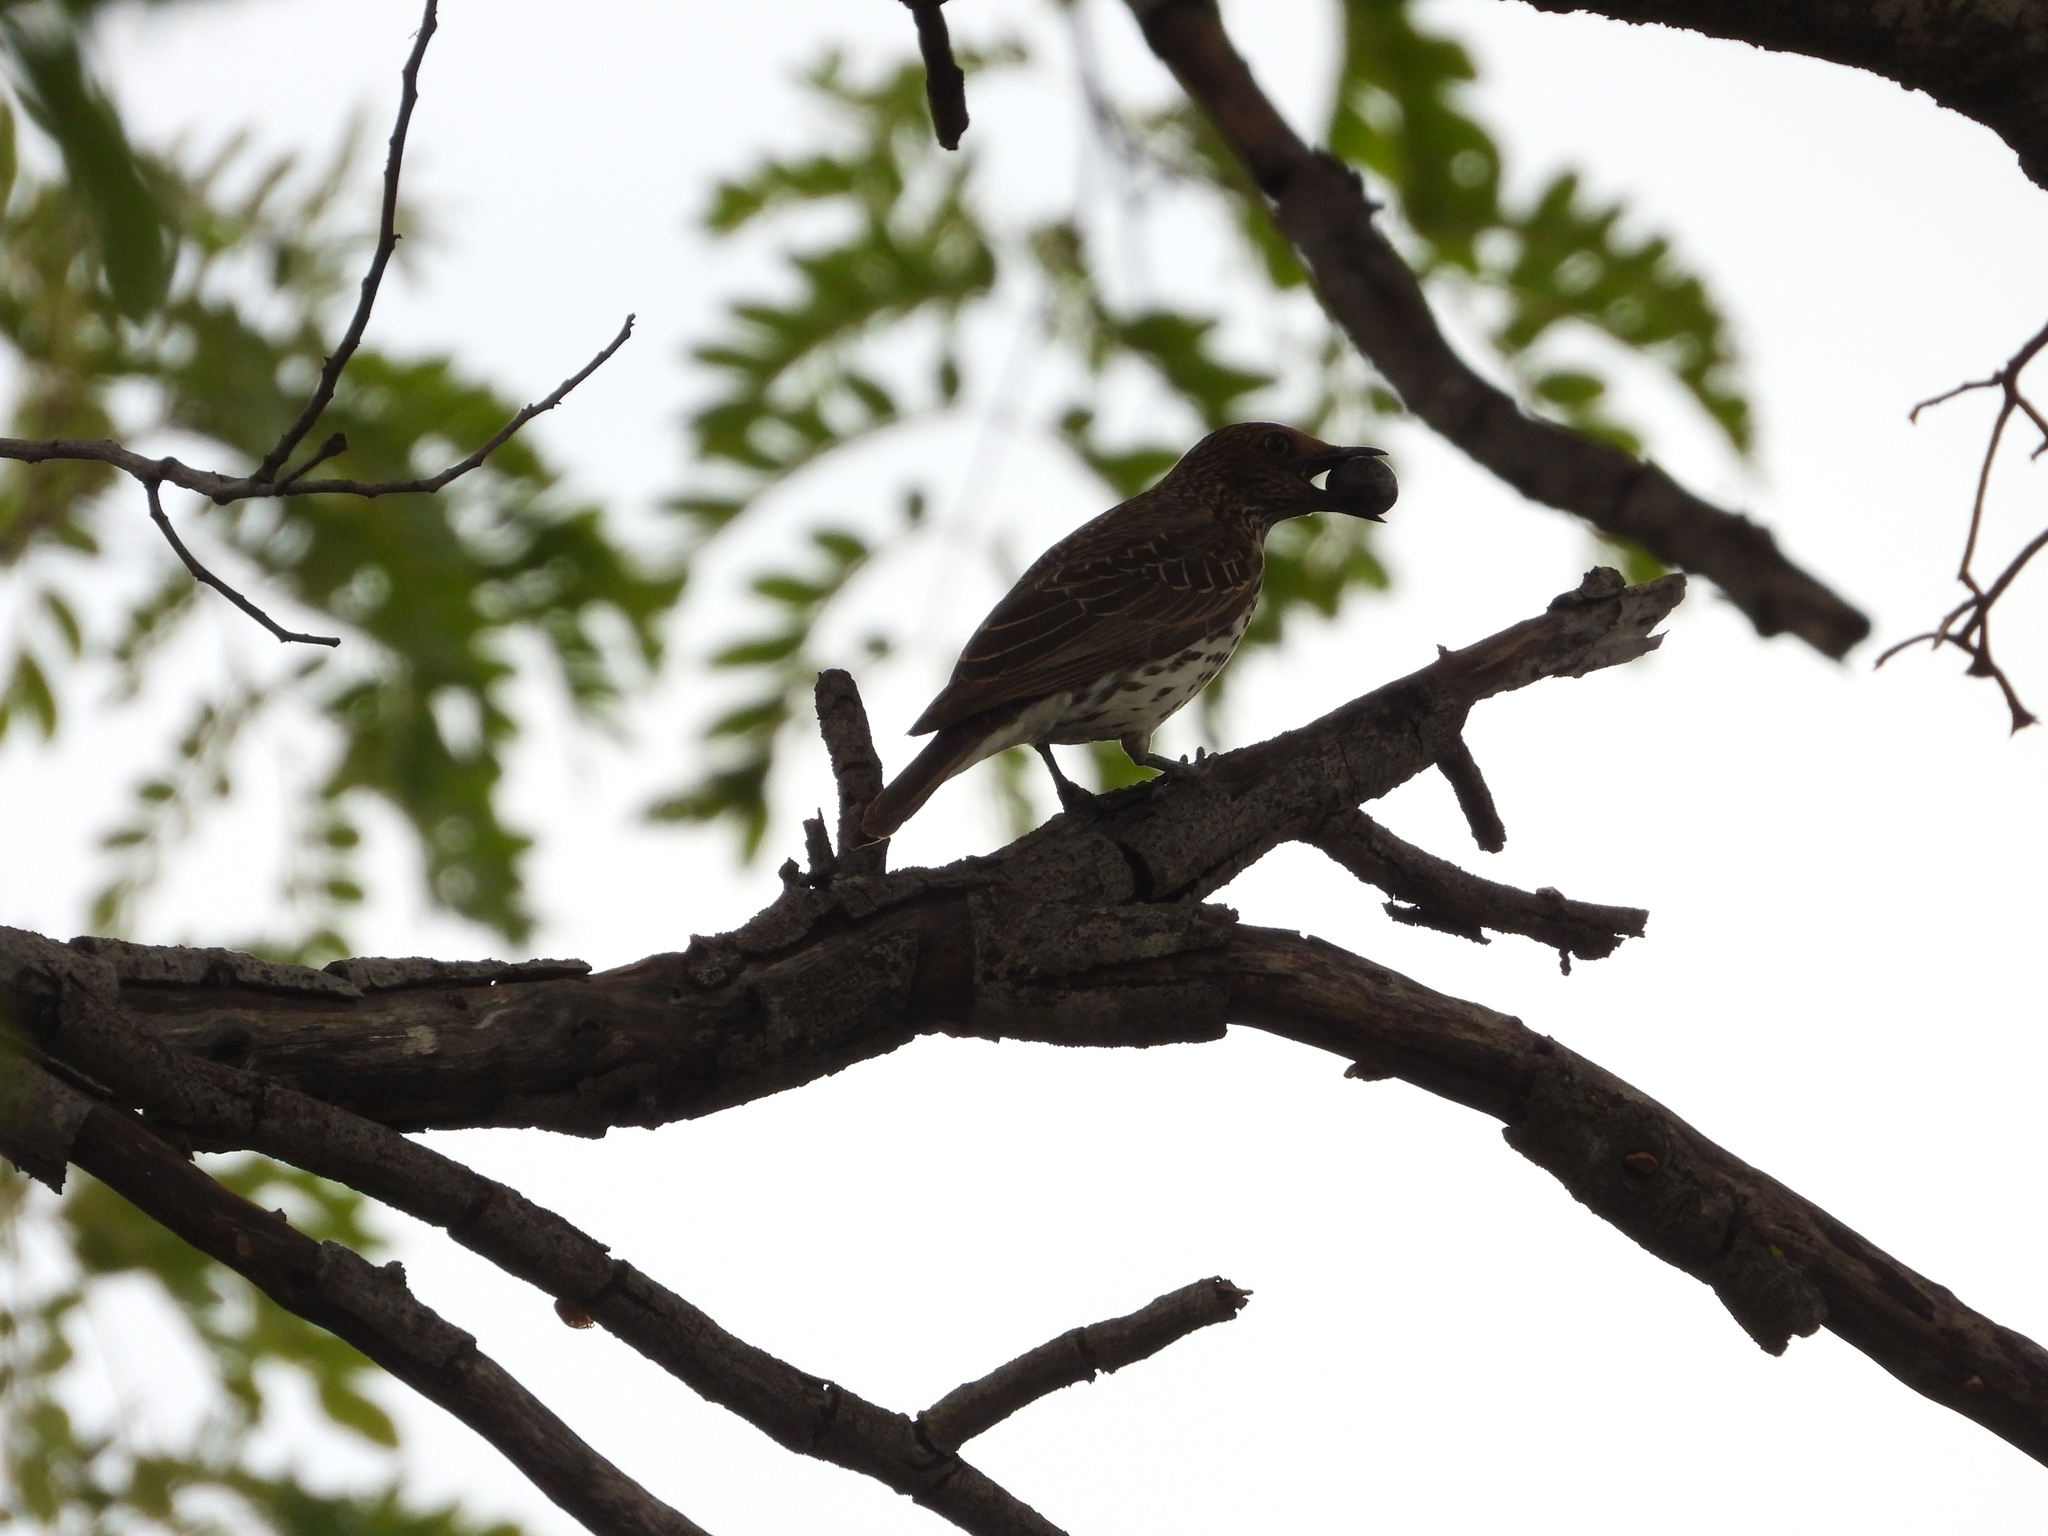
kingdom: Animalia
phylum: Chordata
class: Aves
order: Passeriformes
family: Sturnidae
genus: Cinnyricinclus
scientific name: Cinnyricinclus leucogaster
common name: Violet-backed starling
